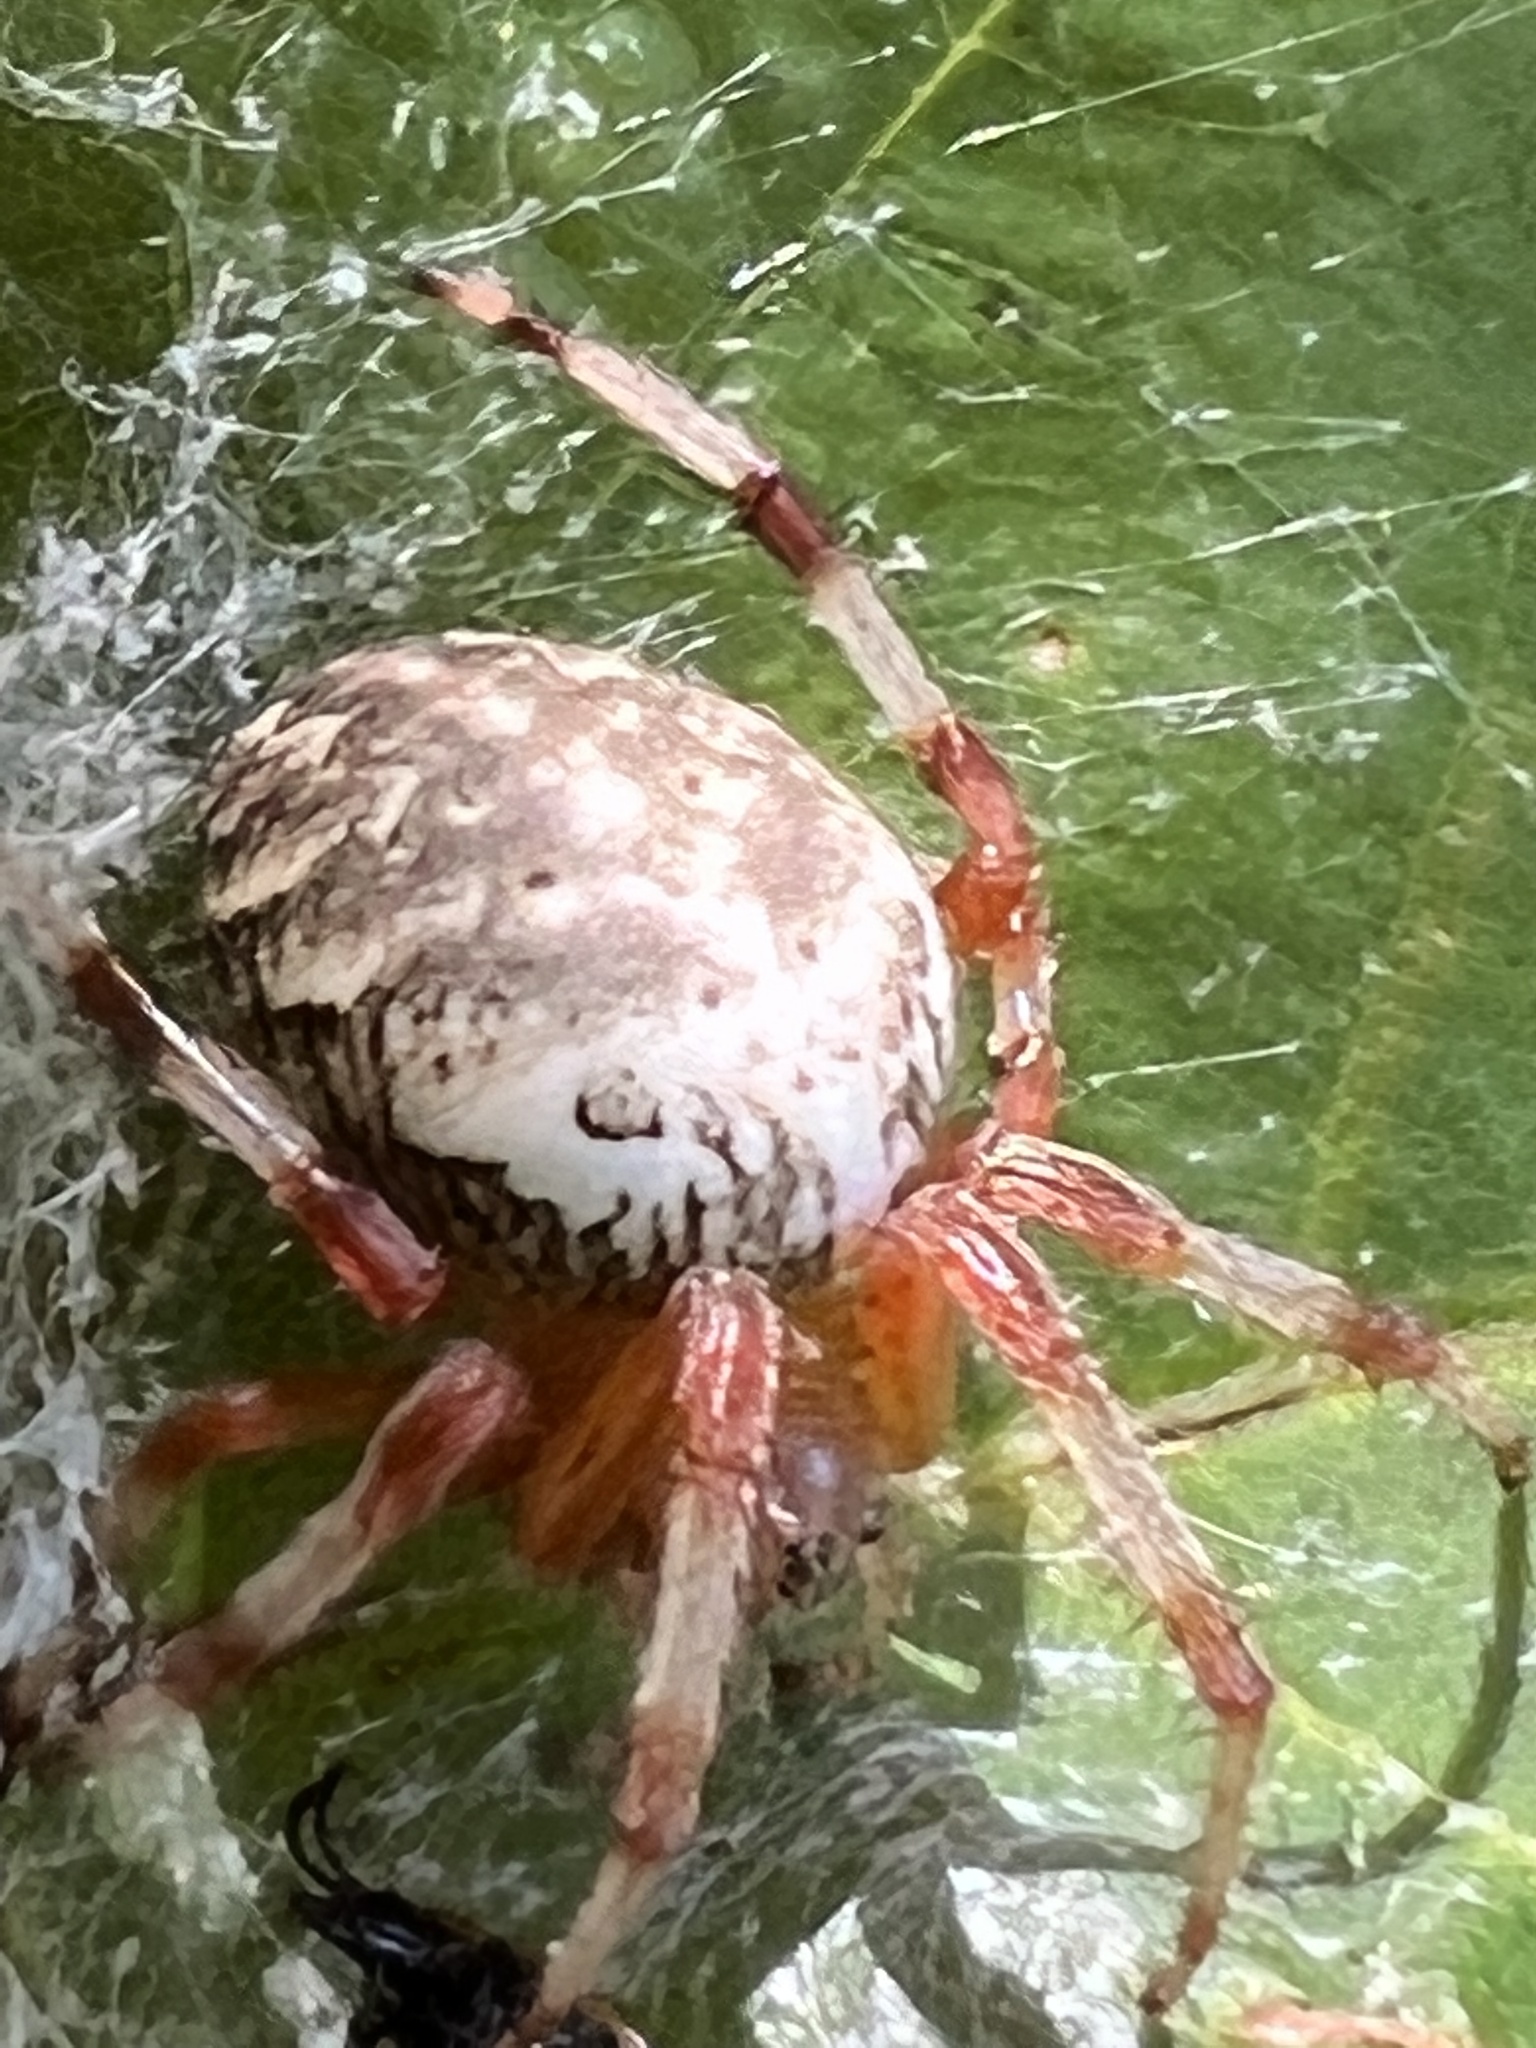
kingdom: Animalia
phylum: Arthropoda
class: Arachnida
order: Araneae
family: Araneidae
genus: Araneus
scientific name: Araneus marmoreus
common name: Marbled orbweaver
